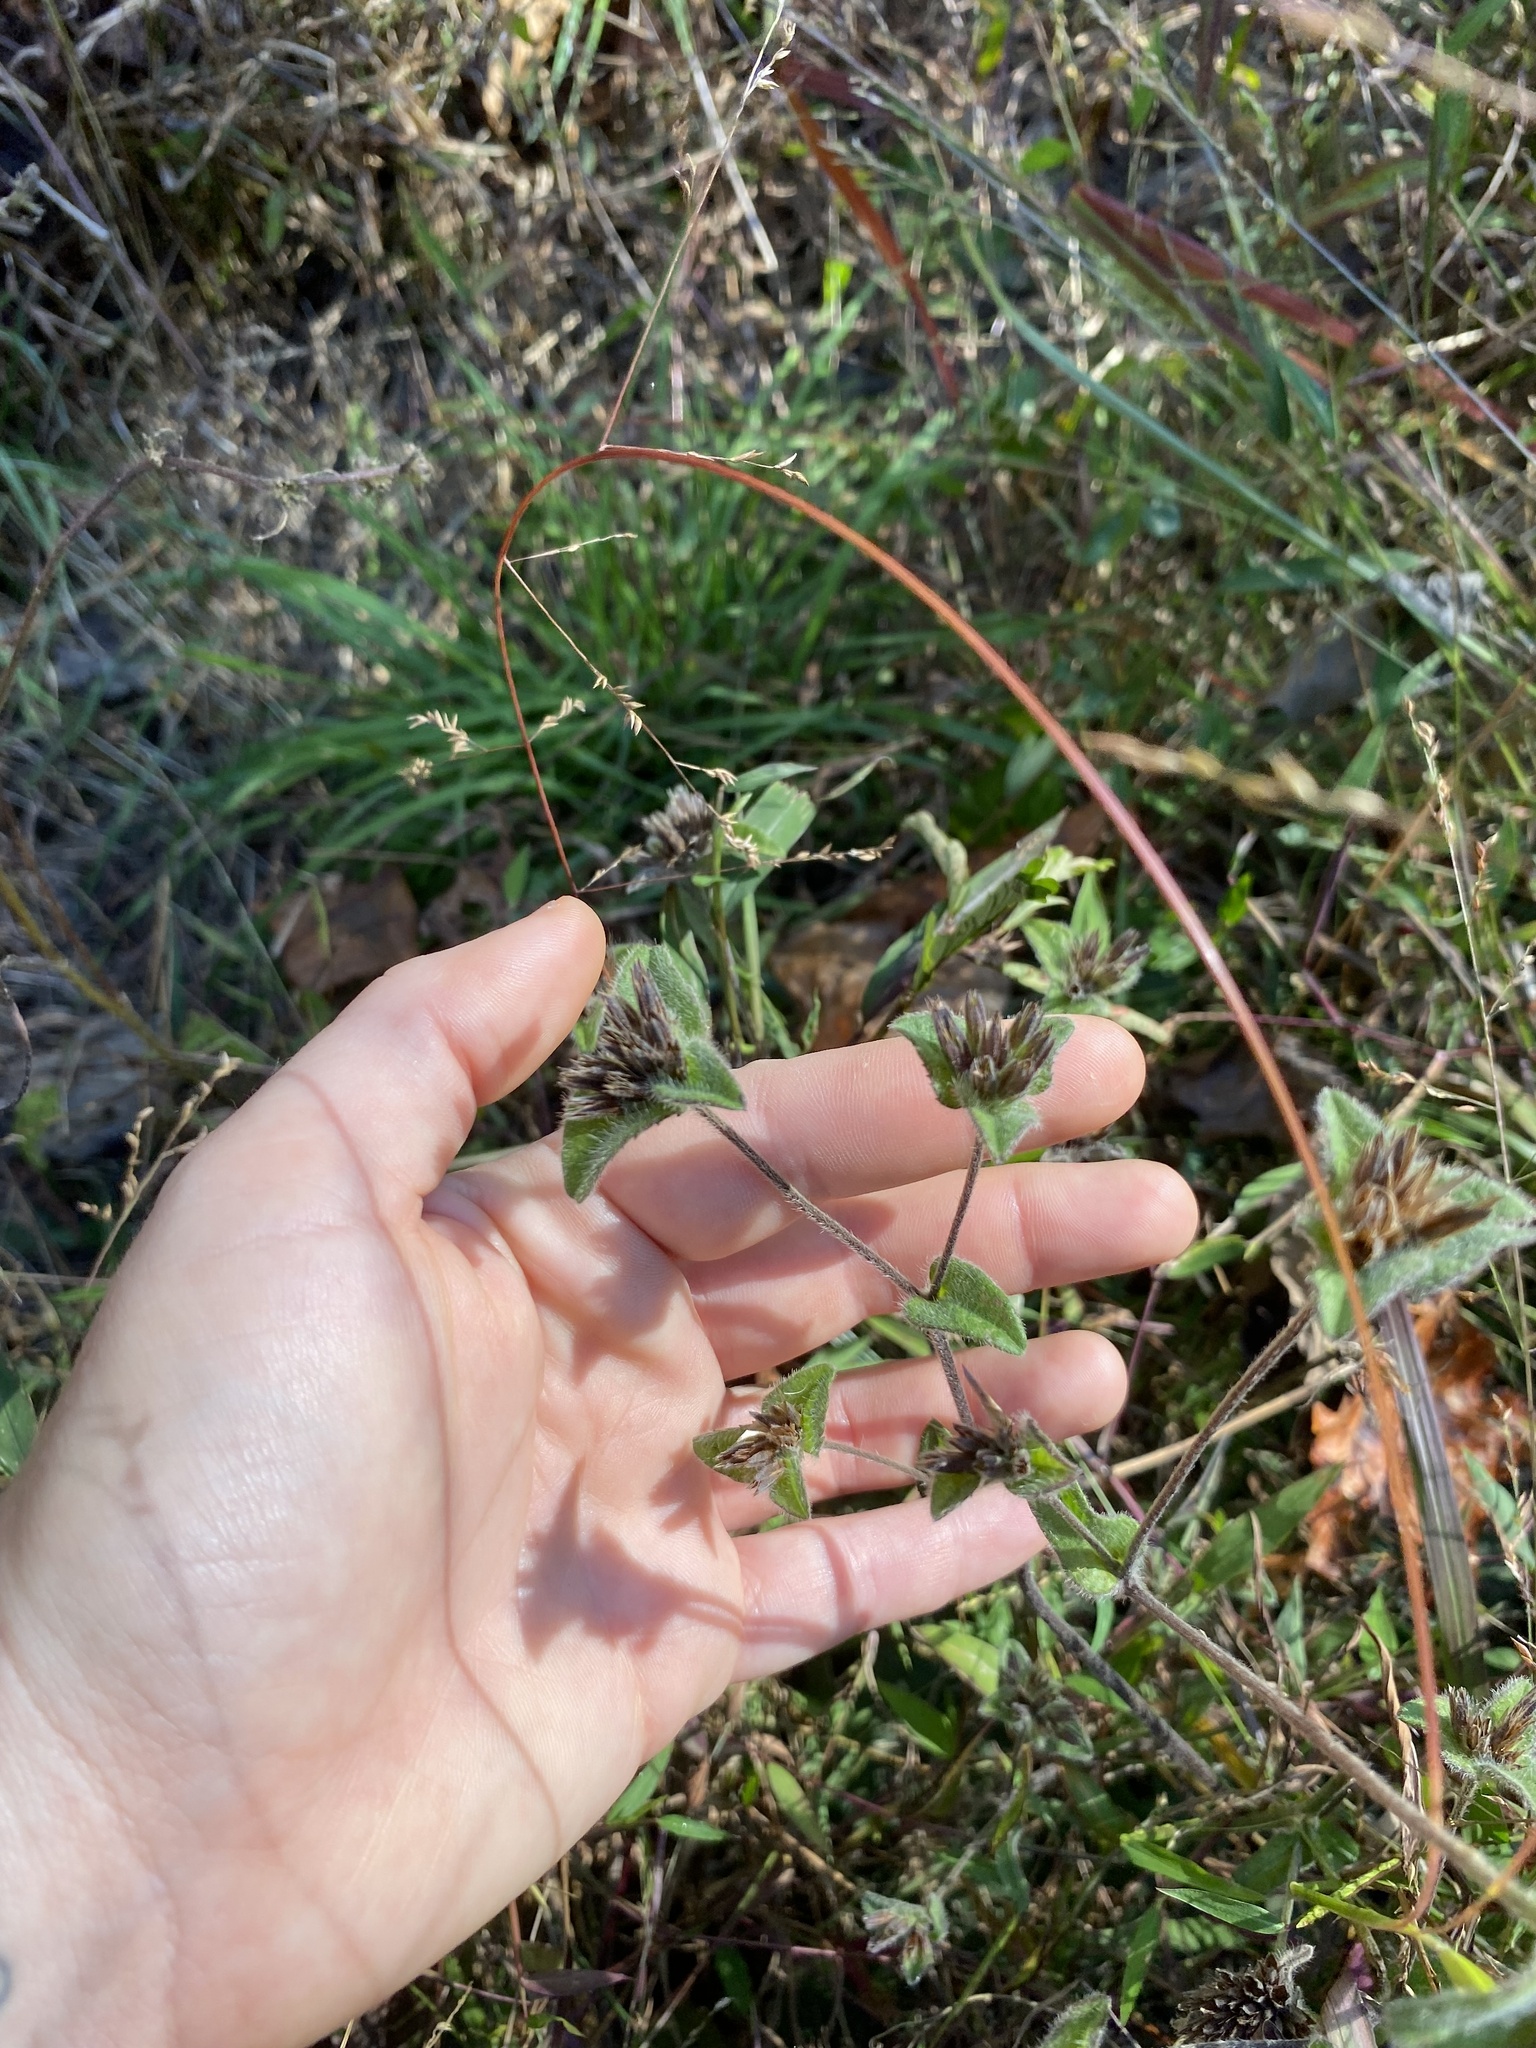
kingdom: Plantae
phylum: Tracheophyta
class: Magnoliopsida
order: Asterales
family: Asteraceae
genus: Elephantopus
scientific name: Elephantopus tomentosus
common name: Tobacco-weed
